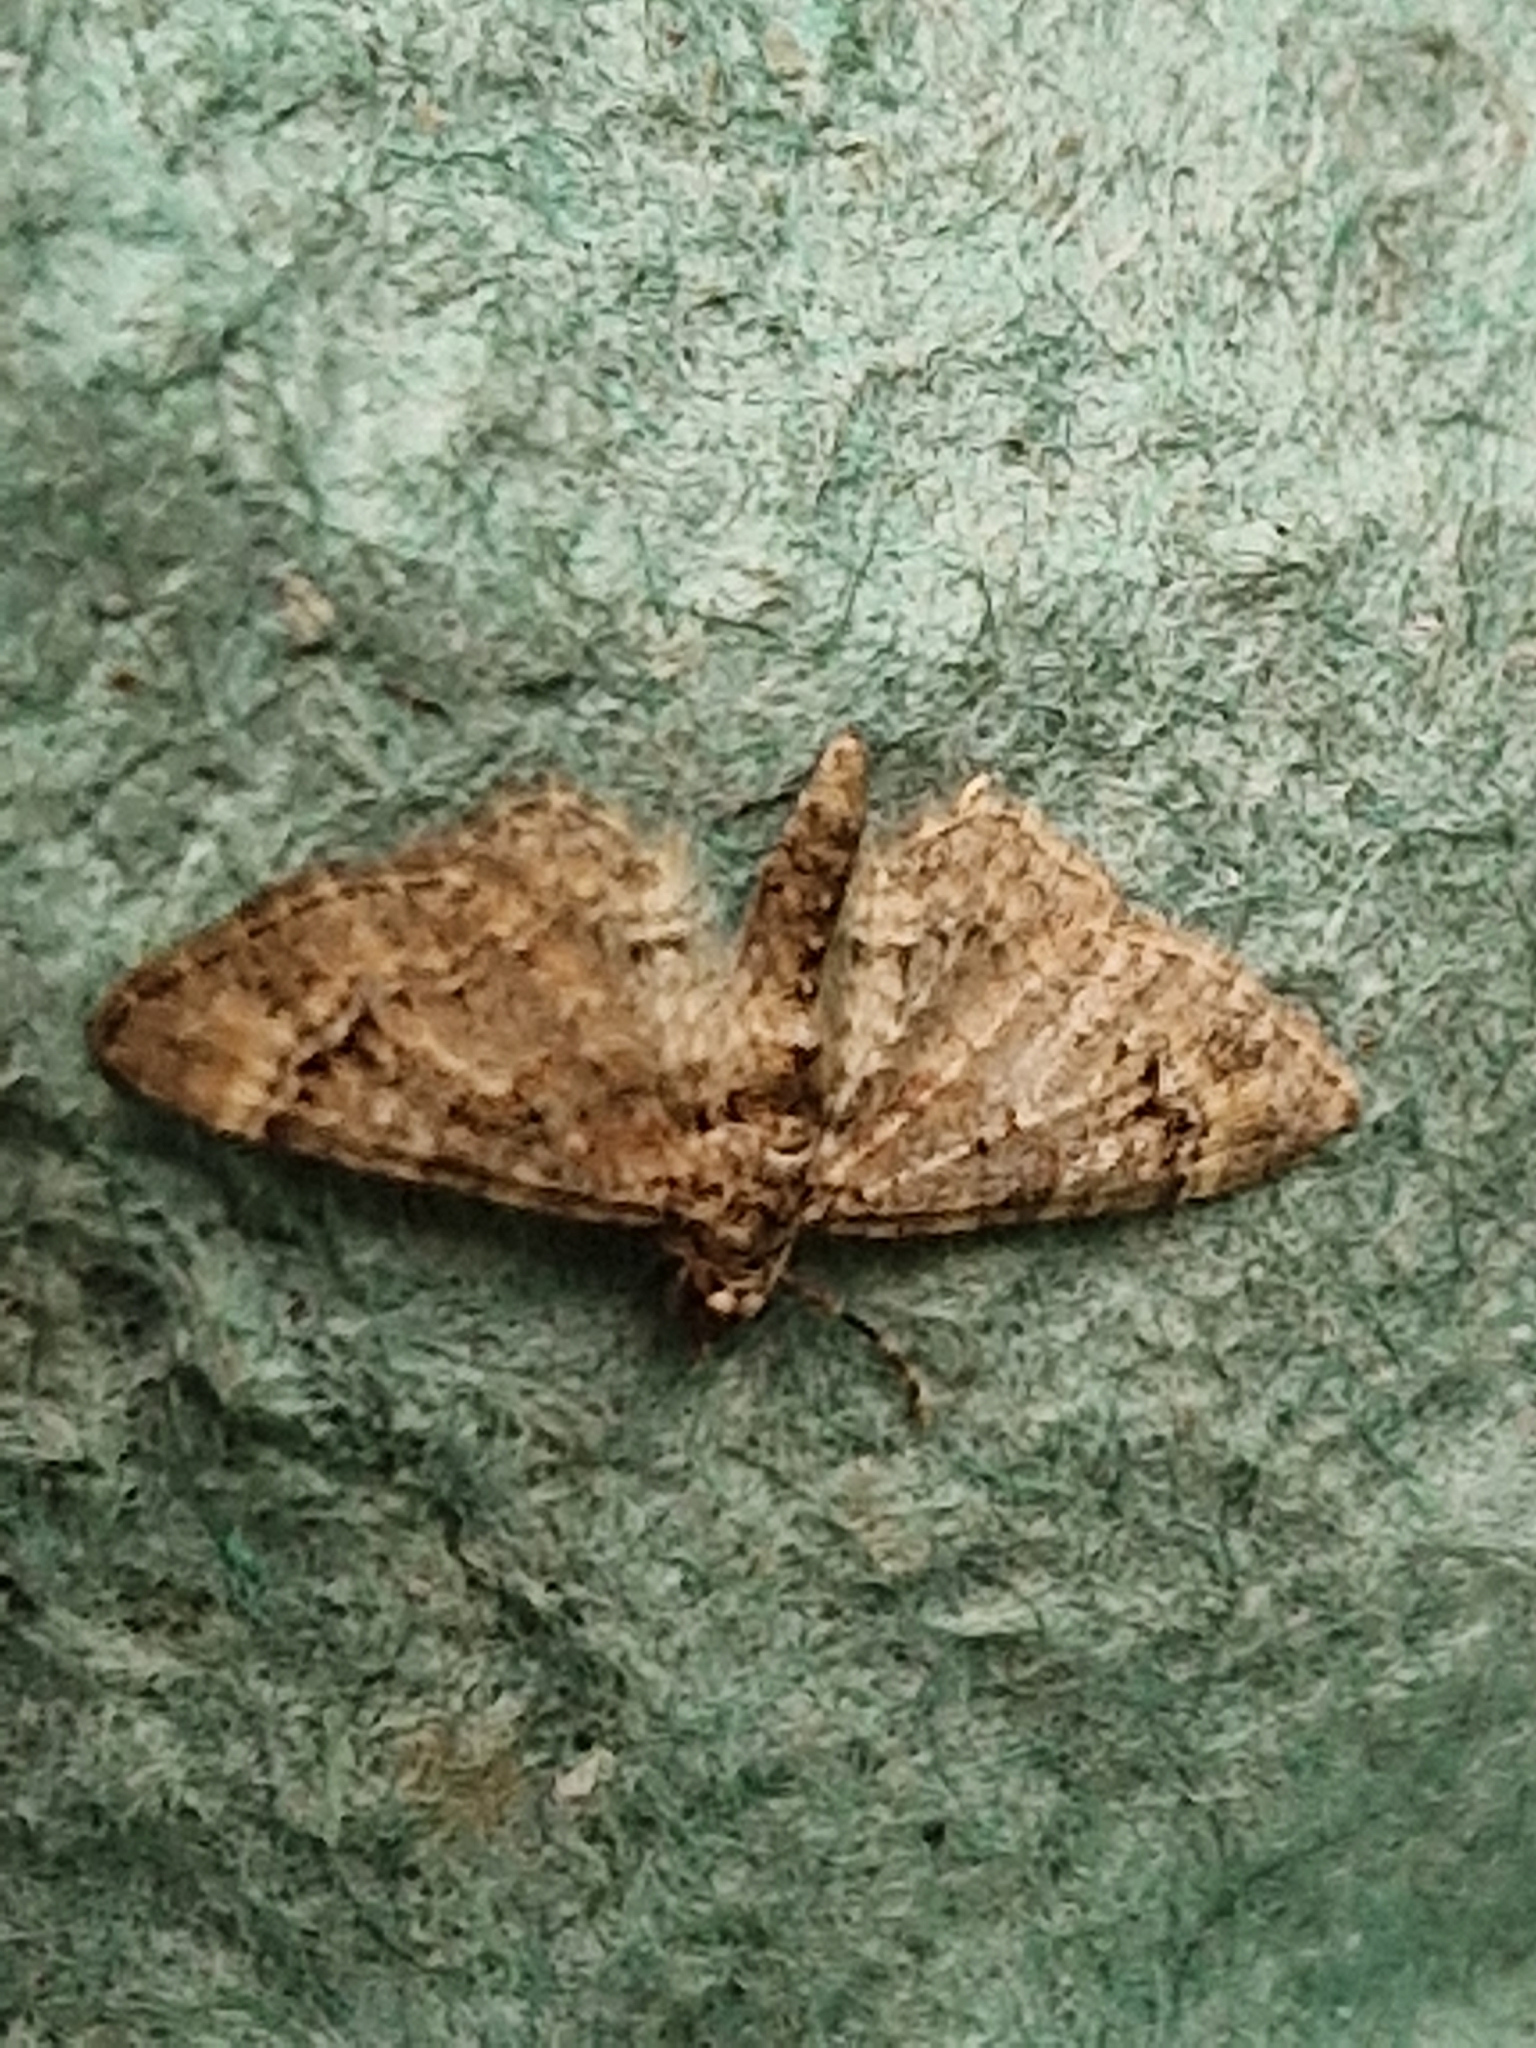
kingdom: Animalia
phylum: Arthropoda
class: Insecta
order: Lepidoptera
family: Geometridae
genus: Gymnoscelis
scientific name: Gymnoscelis rufifasciata
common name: Double-striped pug
